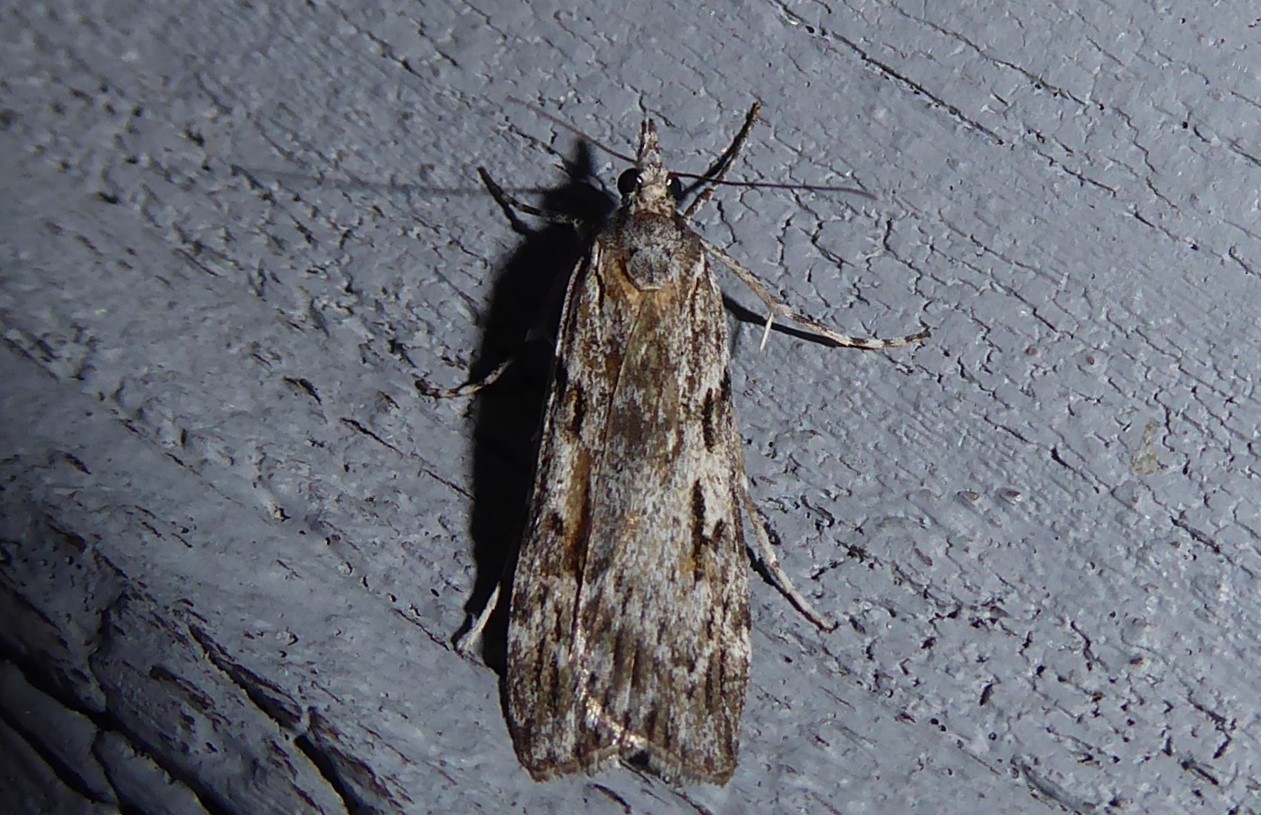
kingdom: Animalia
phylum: Arthropoda
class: Insecta
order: Lepidoptera
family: Crambidae
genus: Scoparia
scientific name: Scoparia halopis
